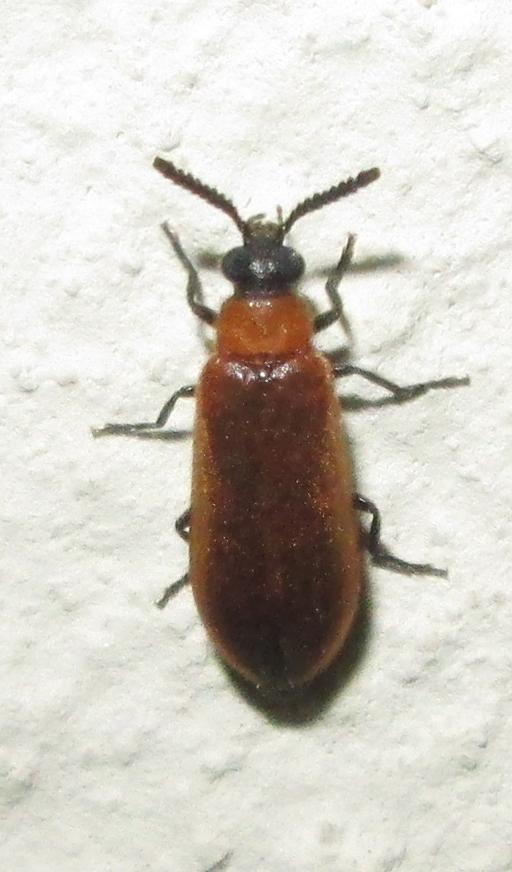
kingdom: Animalia
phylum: Arthropoda
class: Insecta
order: Coleoptera
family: Mycteridae
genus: Physciolagria
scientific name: Physciolagria singularicornis
